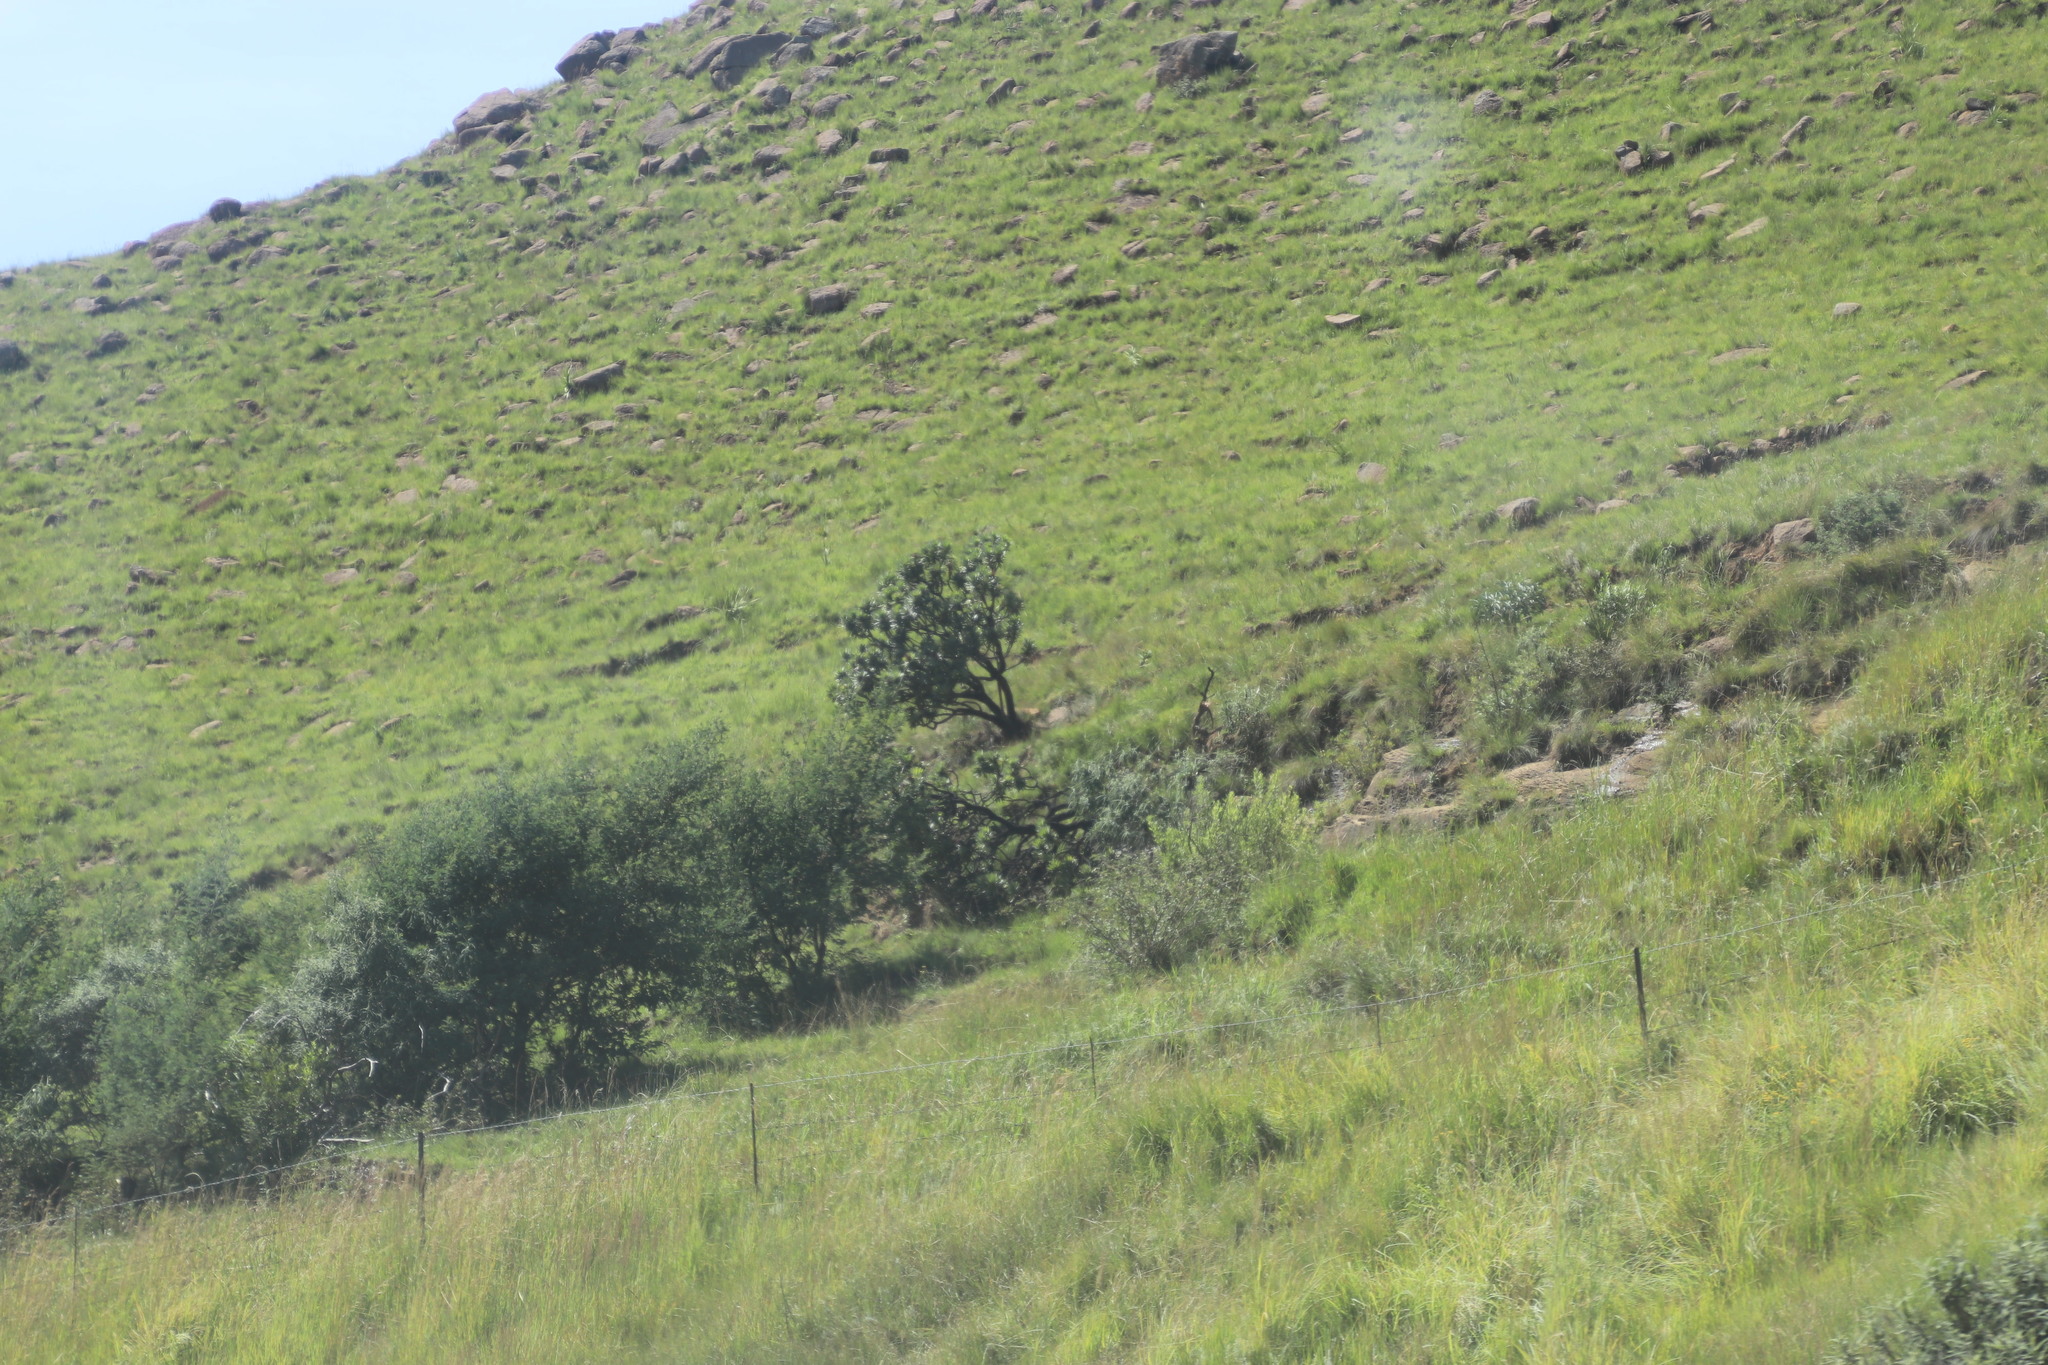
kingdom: Plantae
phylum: Tracheophyta
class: Magnoliopsida
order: Proteales
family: Proteaceae
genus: Protea
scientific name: Protea roupelliae
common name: Silver sugarbush
